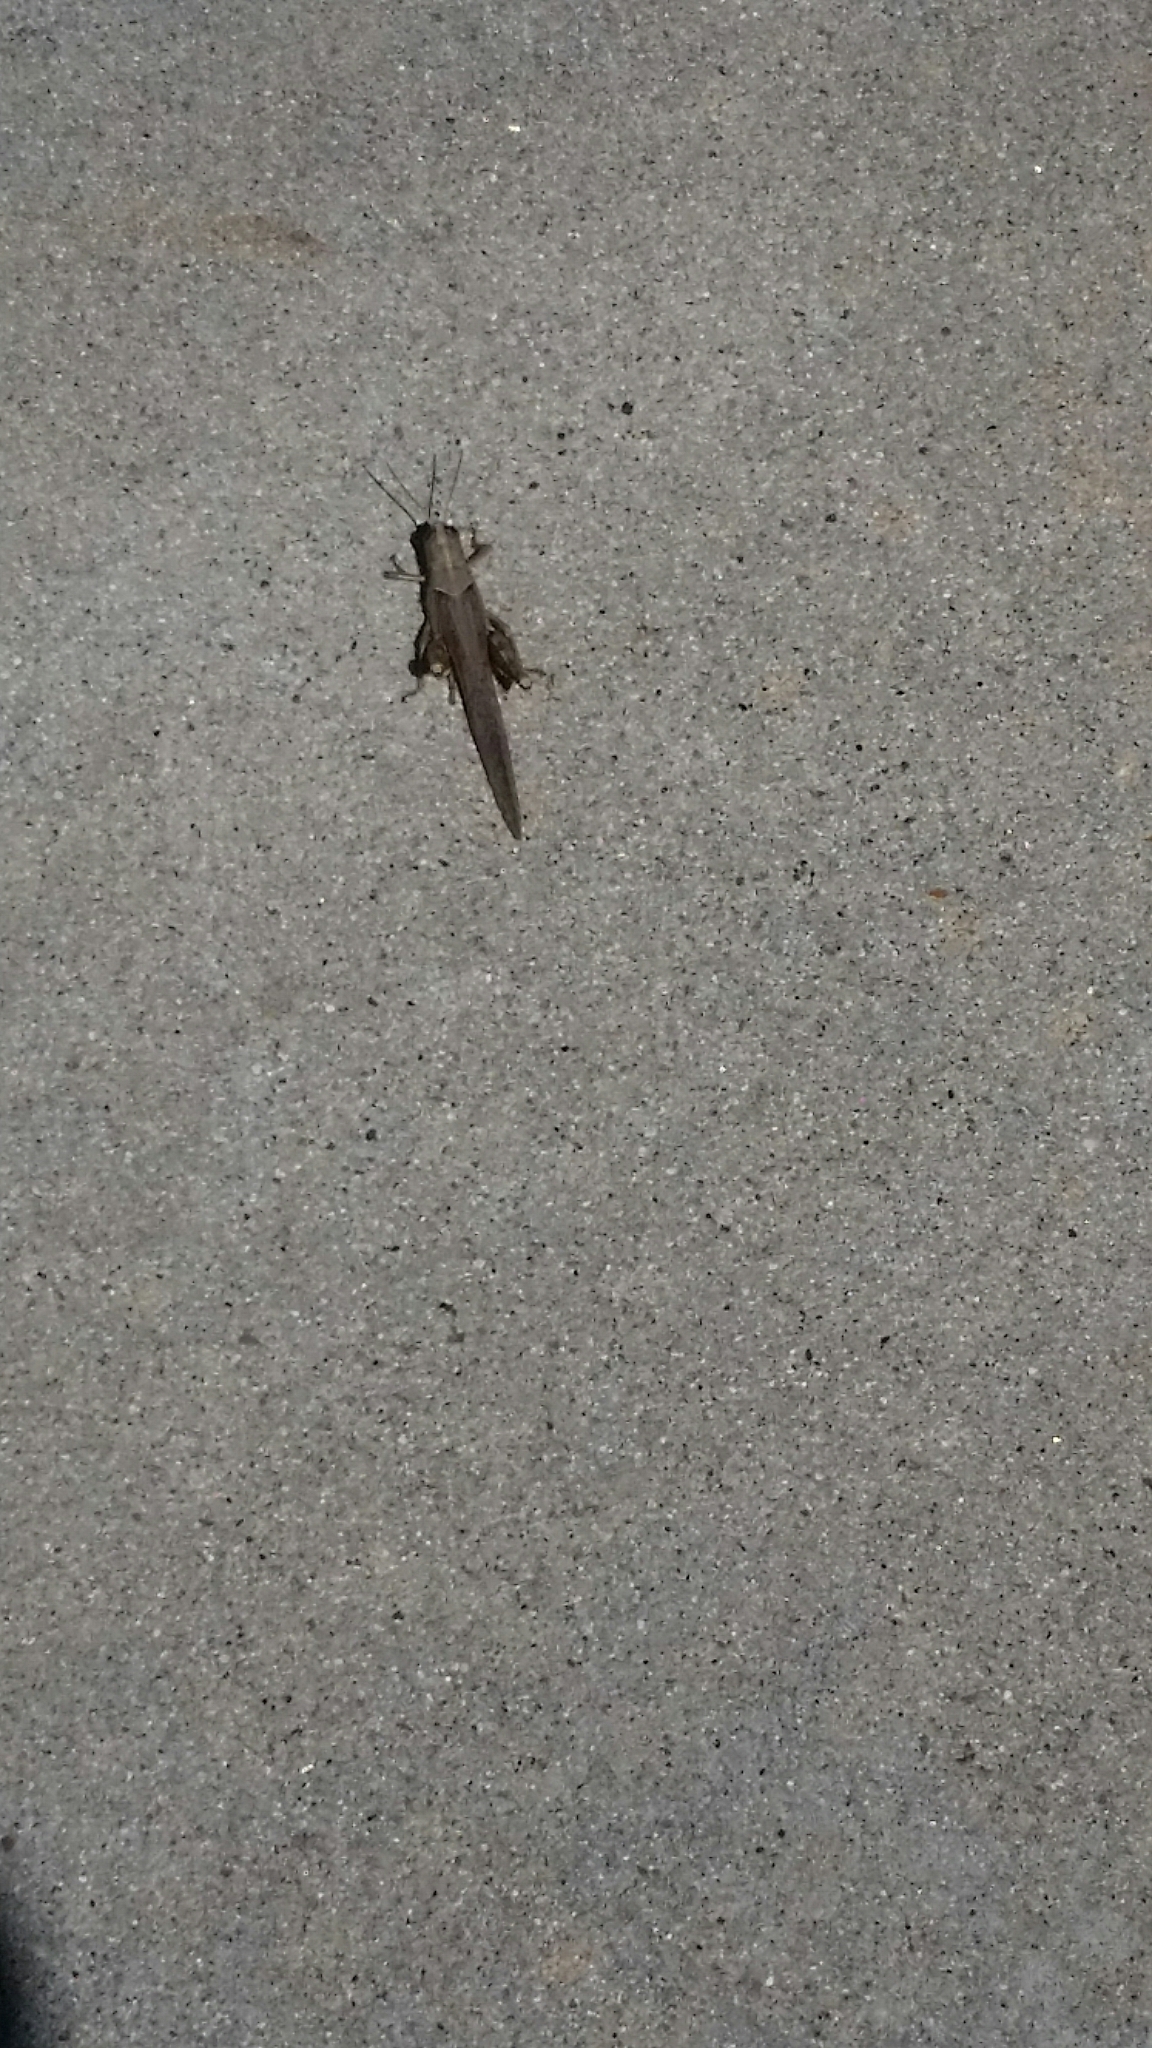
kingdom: Animalia
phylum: Arthropoda
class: Insecta
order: Orthoptera
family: Acrididae
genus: Schistocerca
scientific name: Schistocerca nitens
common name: Vagrant grasshopper
